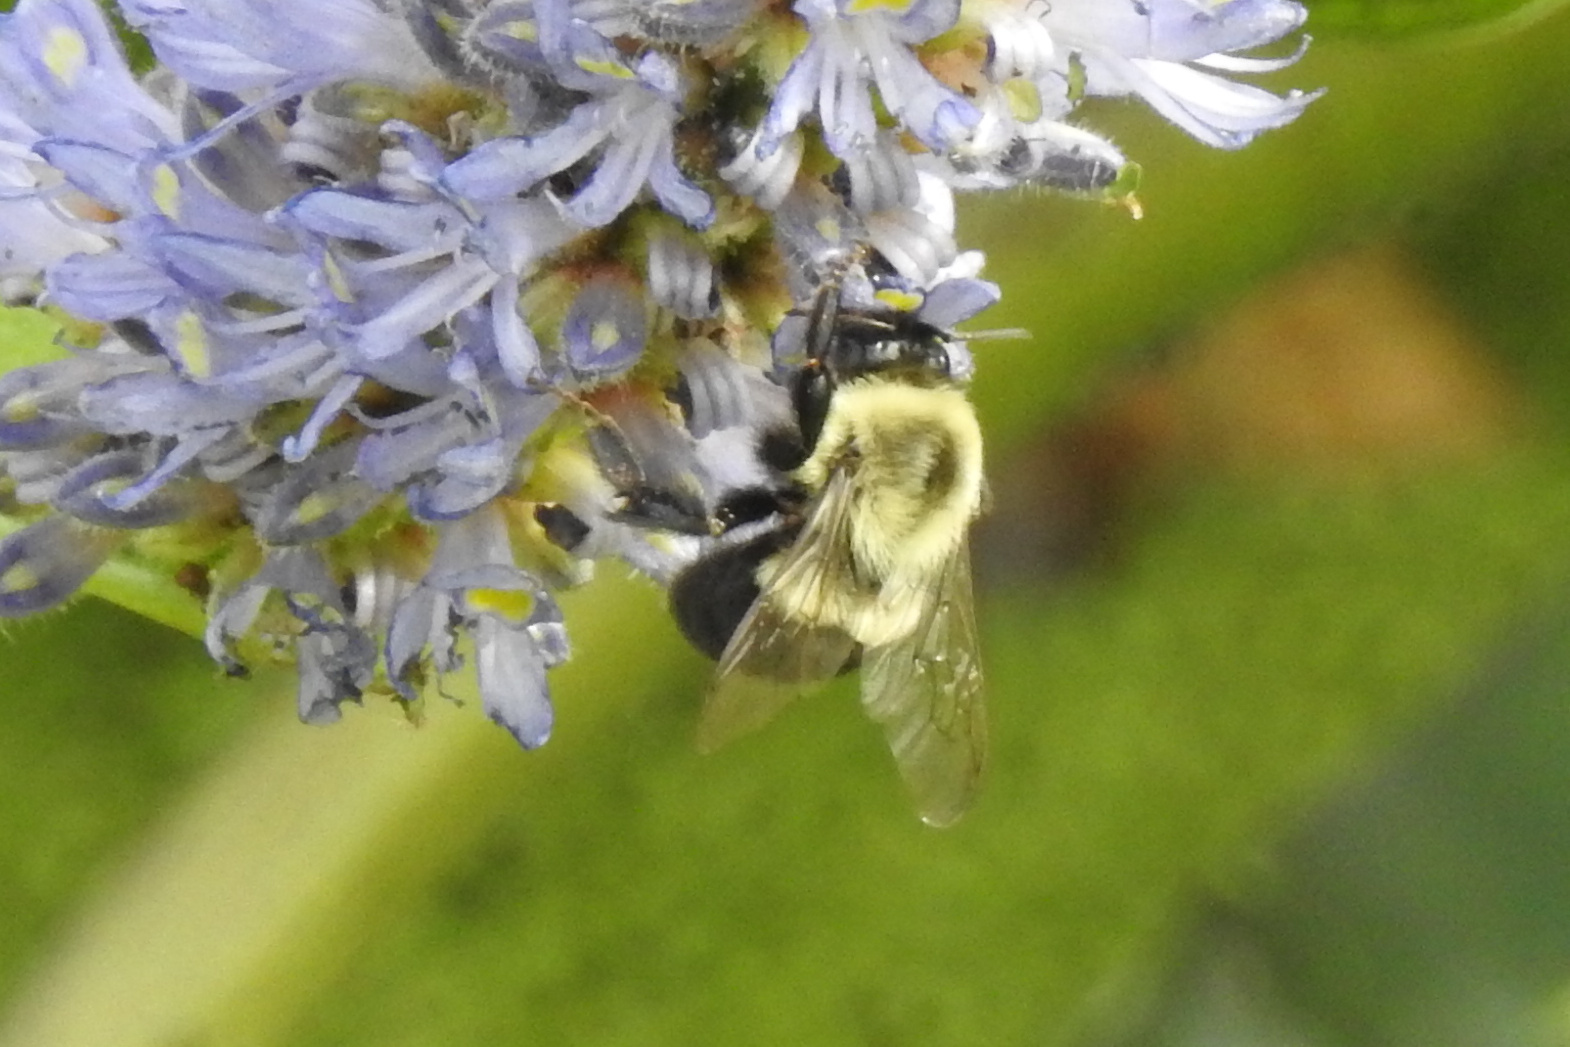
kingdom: Animalia
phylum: Arthropoda
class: Insecta
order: Hymenoptera
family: Apidae
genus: Bombus
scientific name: Bombus impatiens
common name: Common eastern bumble bee
